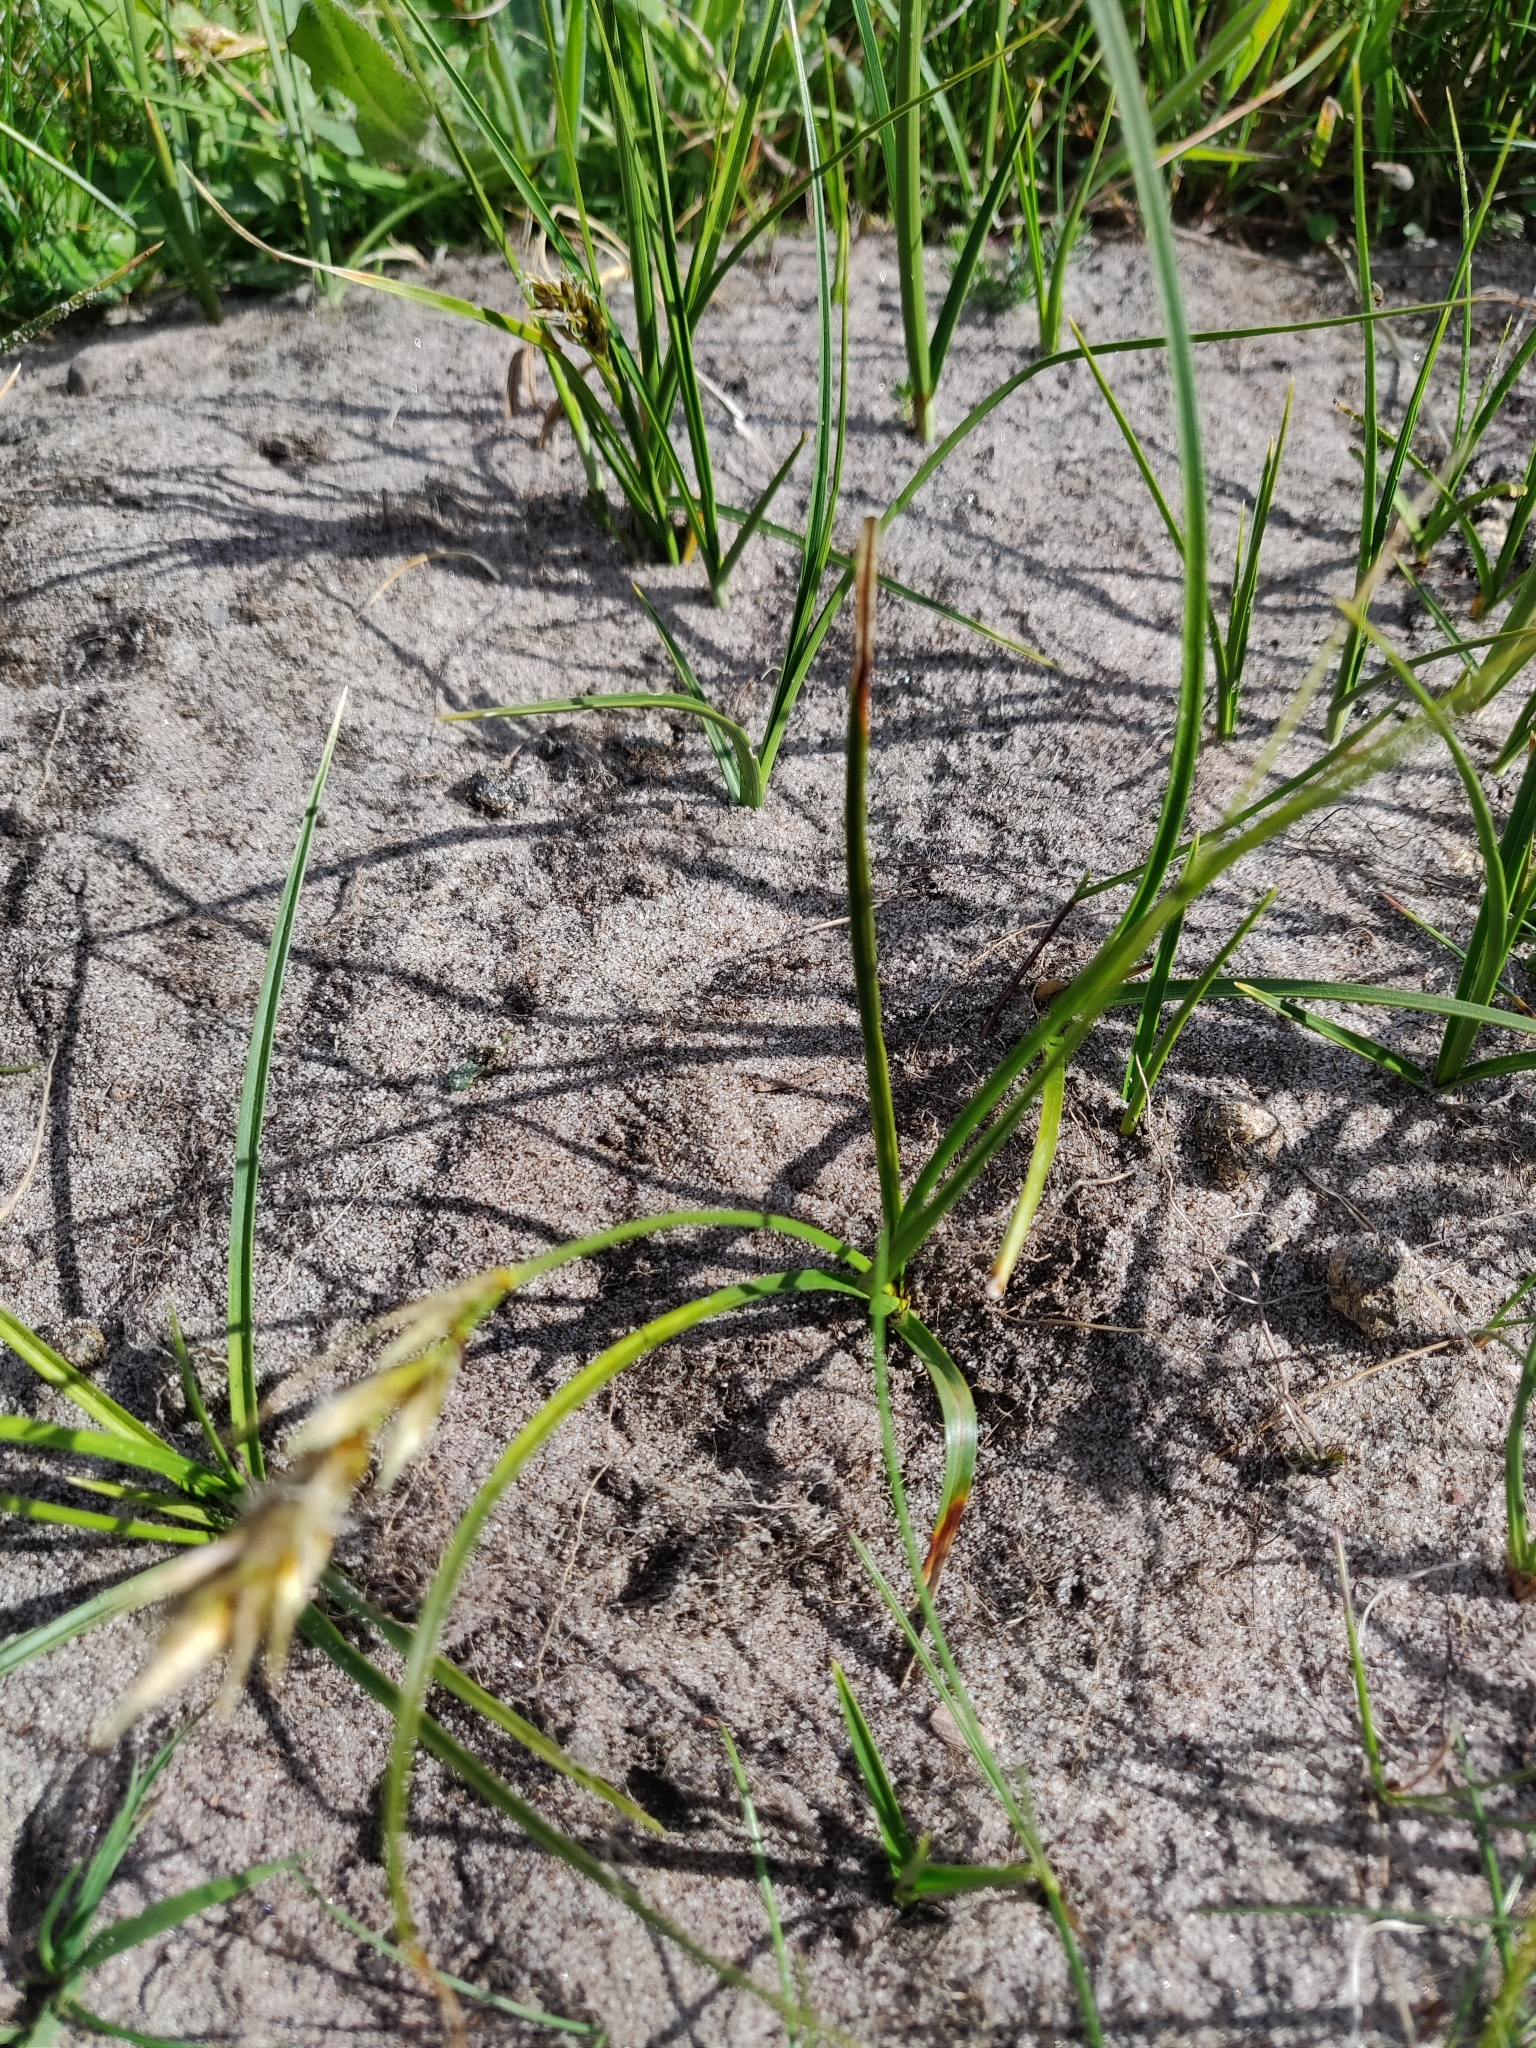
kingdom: Plantae
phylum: Tracheophyta
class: Liliopsida
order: Poales
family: Cyperaceae
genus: Carex
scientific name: Carex arenaria
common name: Sand sedge
